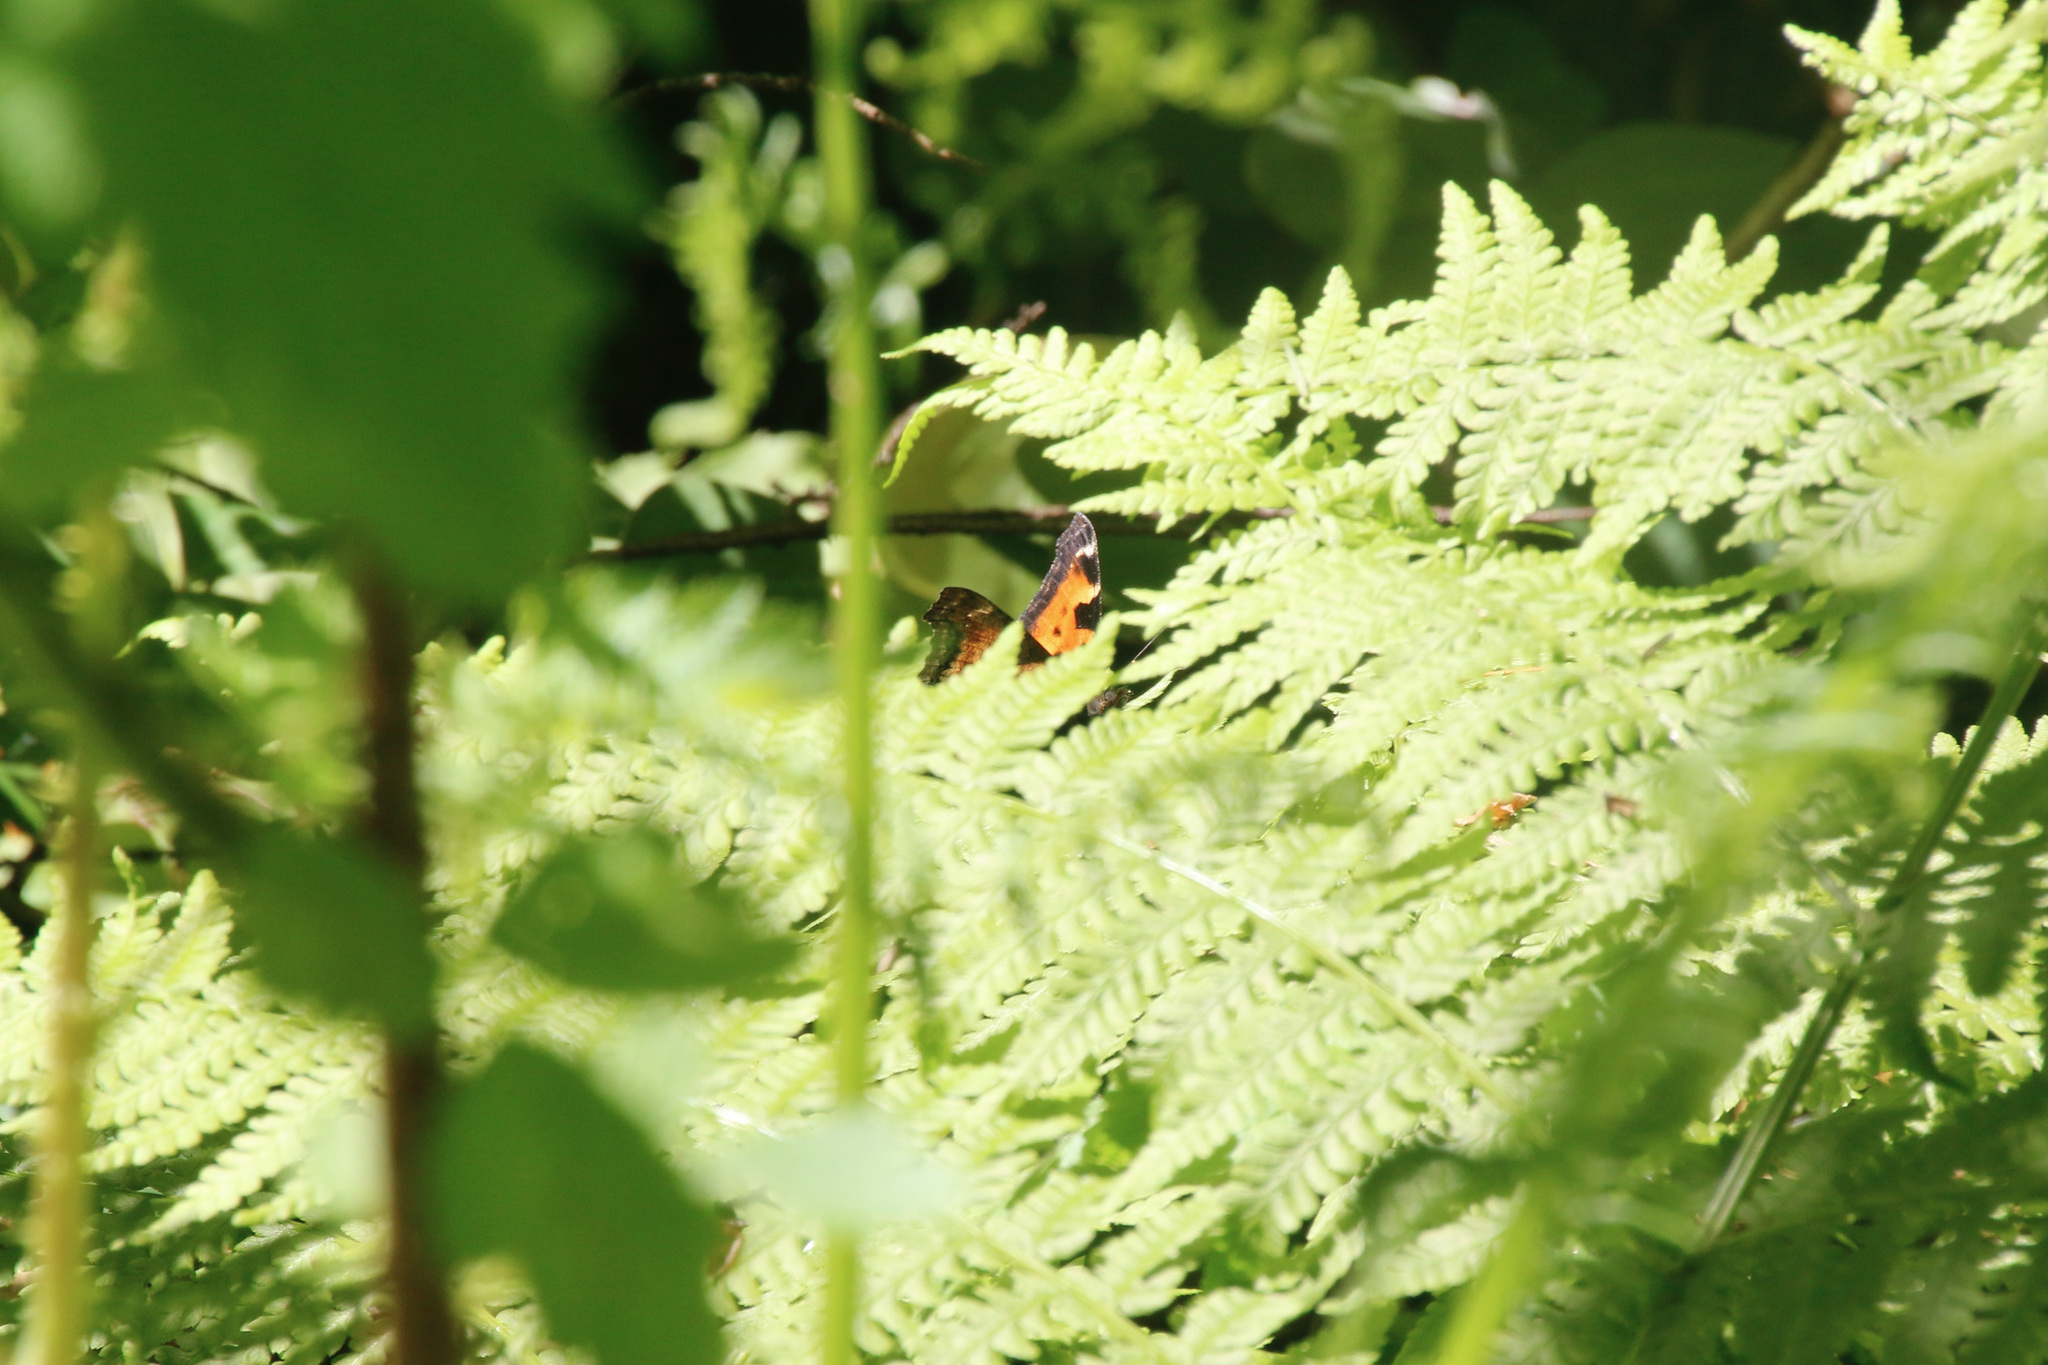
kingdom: Animalia
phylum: Arthropoda
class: Insecta
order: Lepidoptera
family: Nymphalidae
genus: Nymphalis
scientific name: Nymphalis californica
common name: California tortoiseshell
